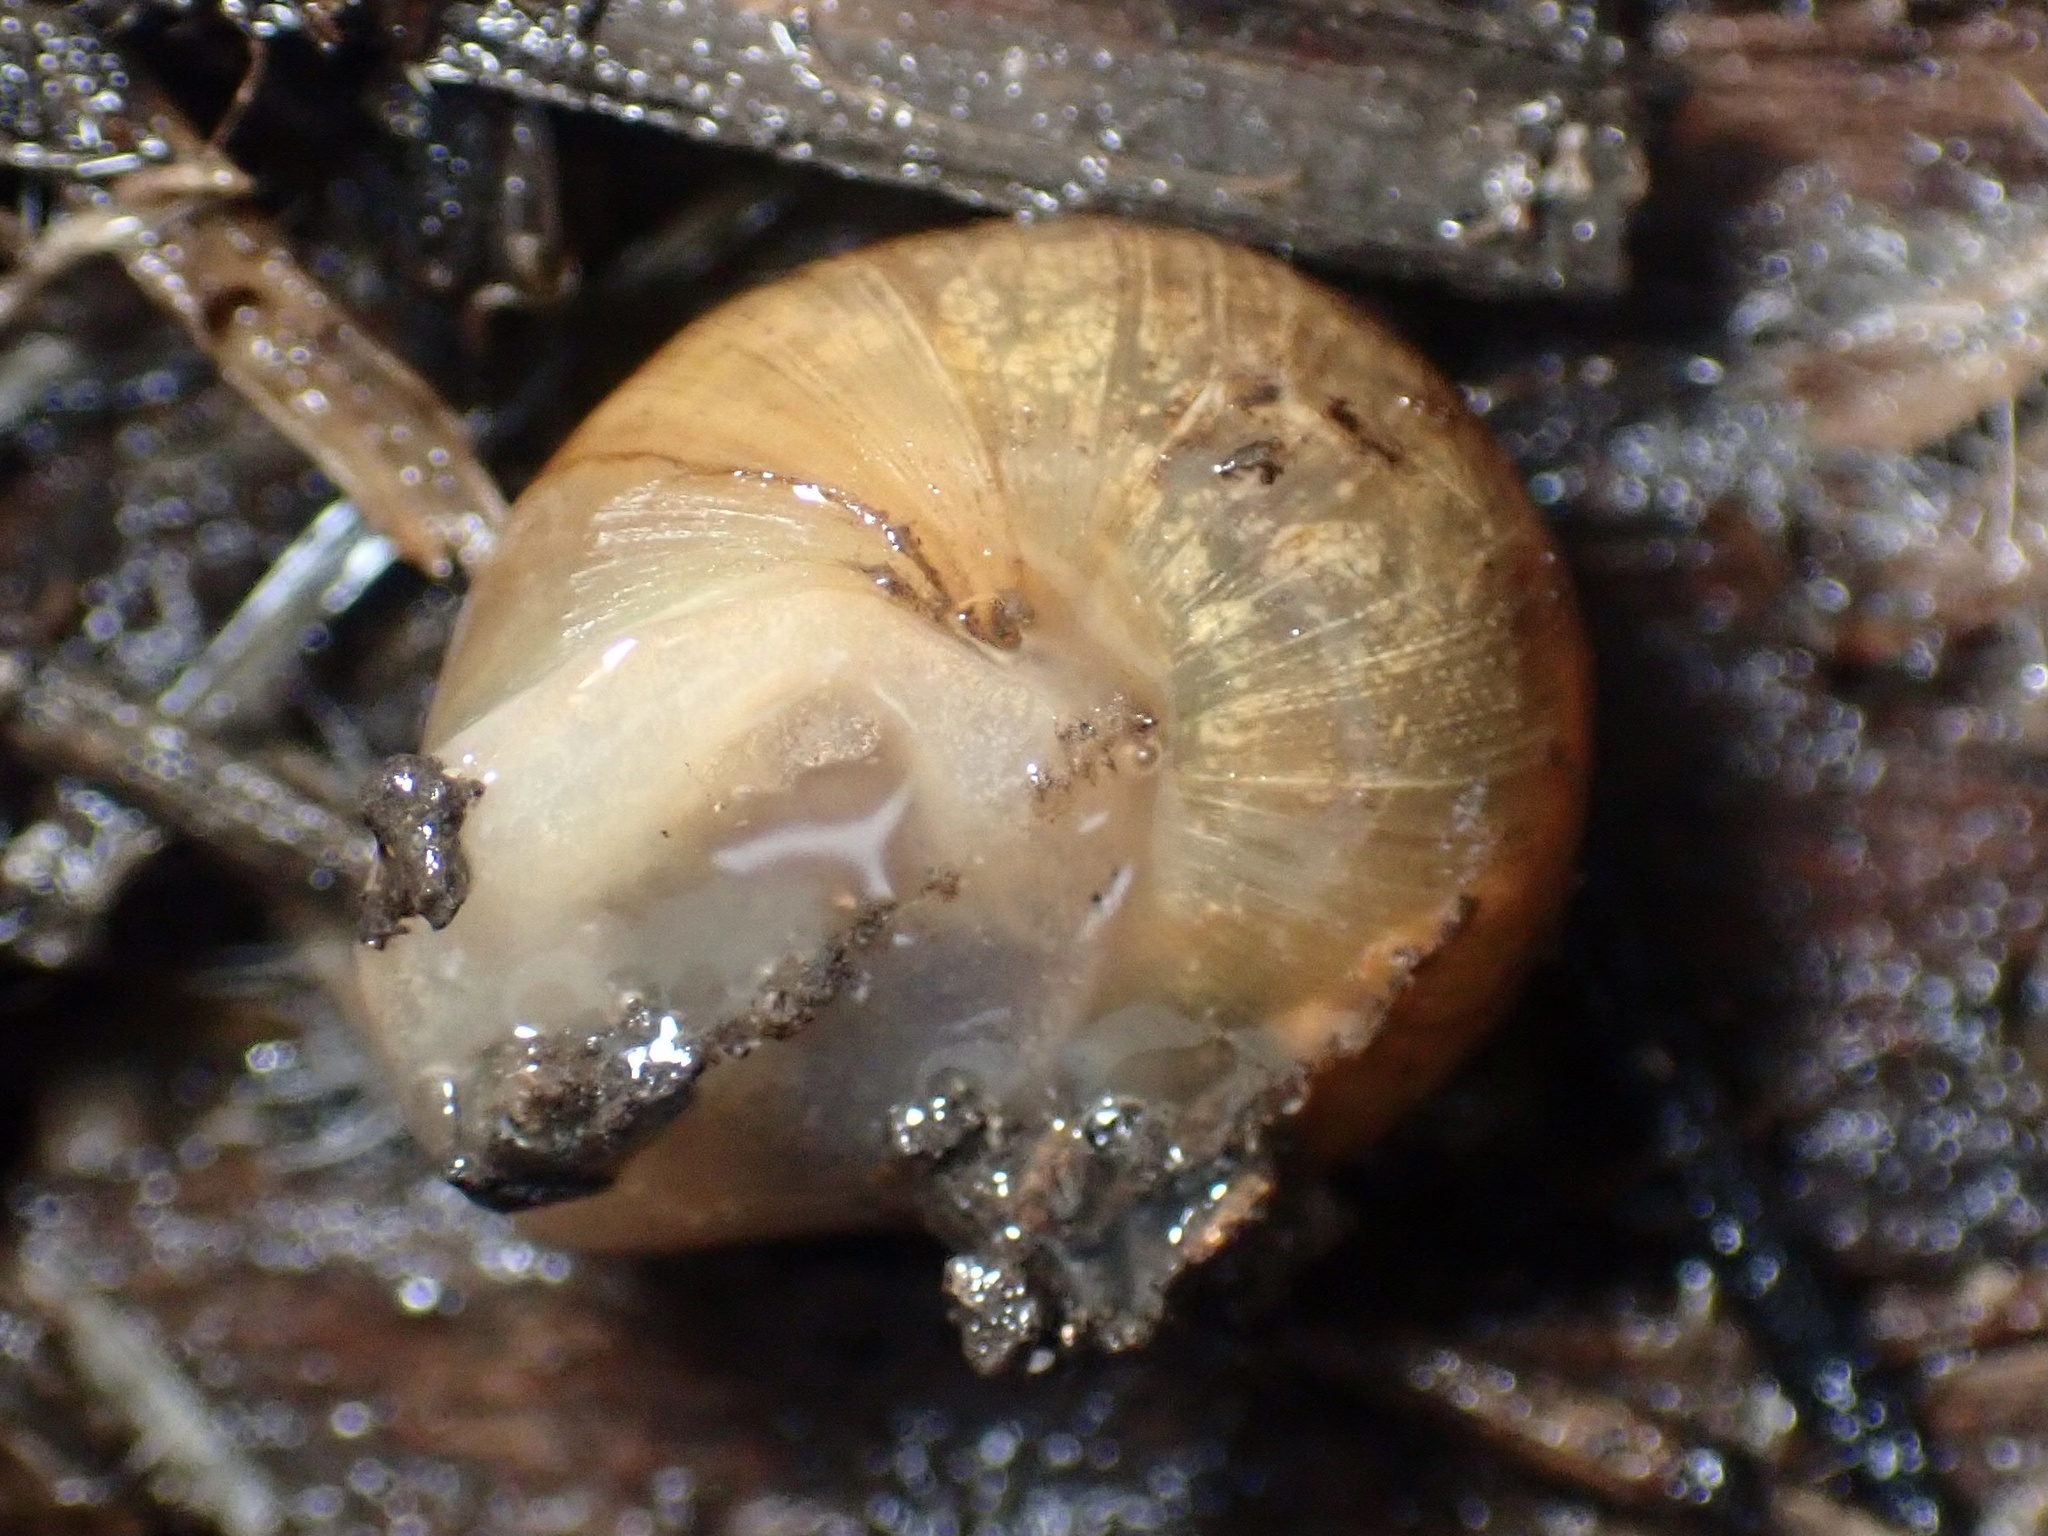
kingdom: Animalia
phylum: Mollusca
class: Gastropoda
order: Stylommatophora
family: Xanthonychidae
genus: Helminthoglypta
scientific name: Helminthoglypta nickliniana
